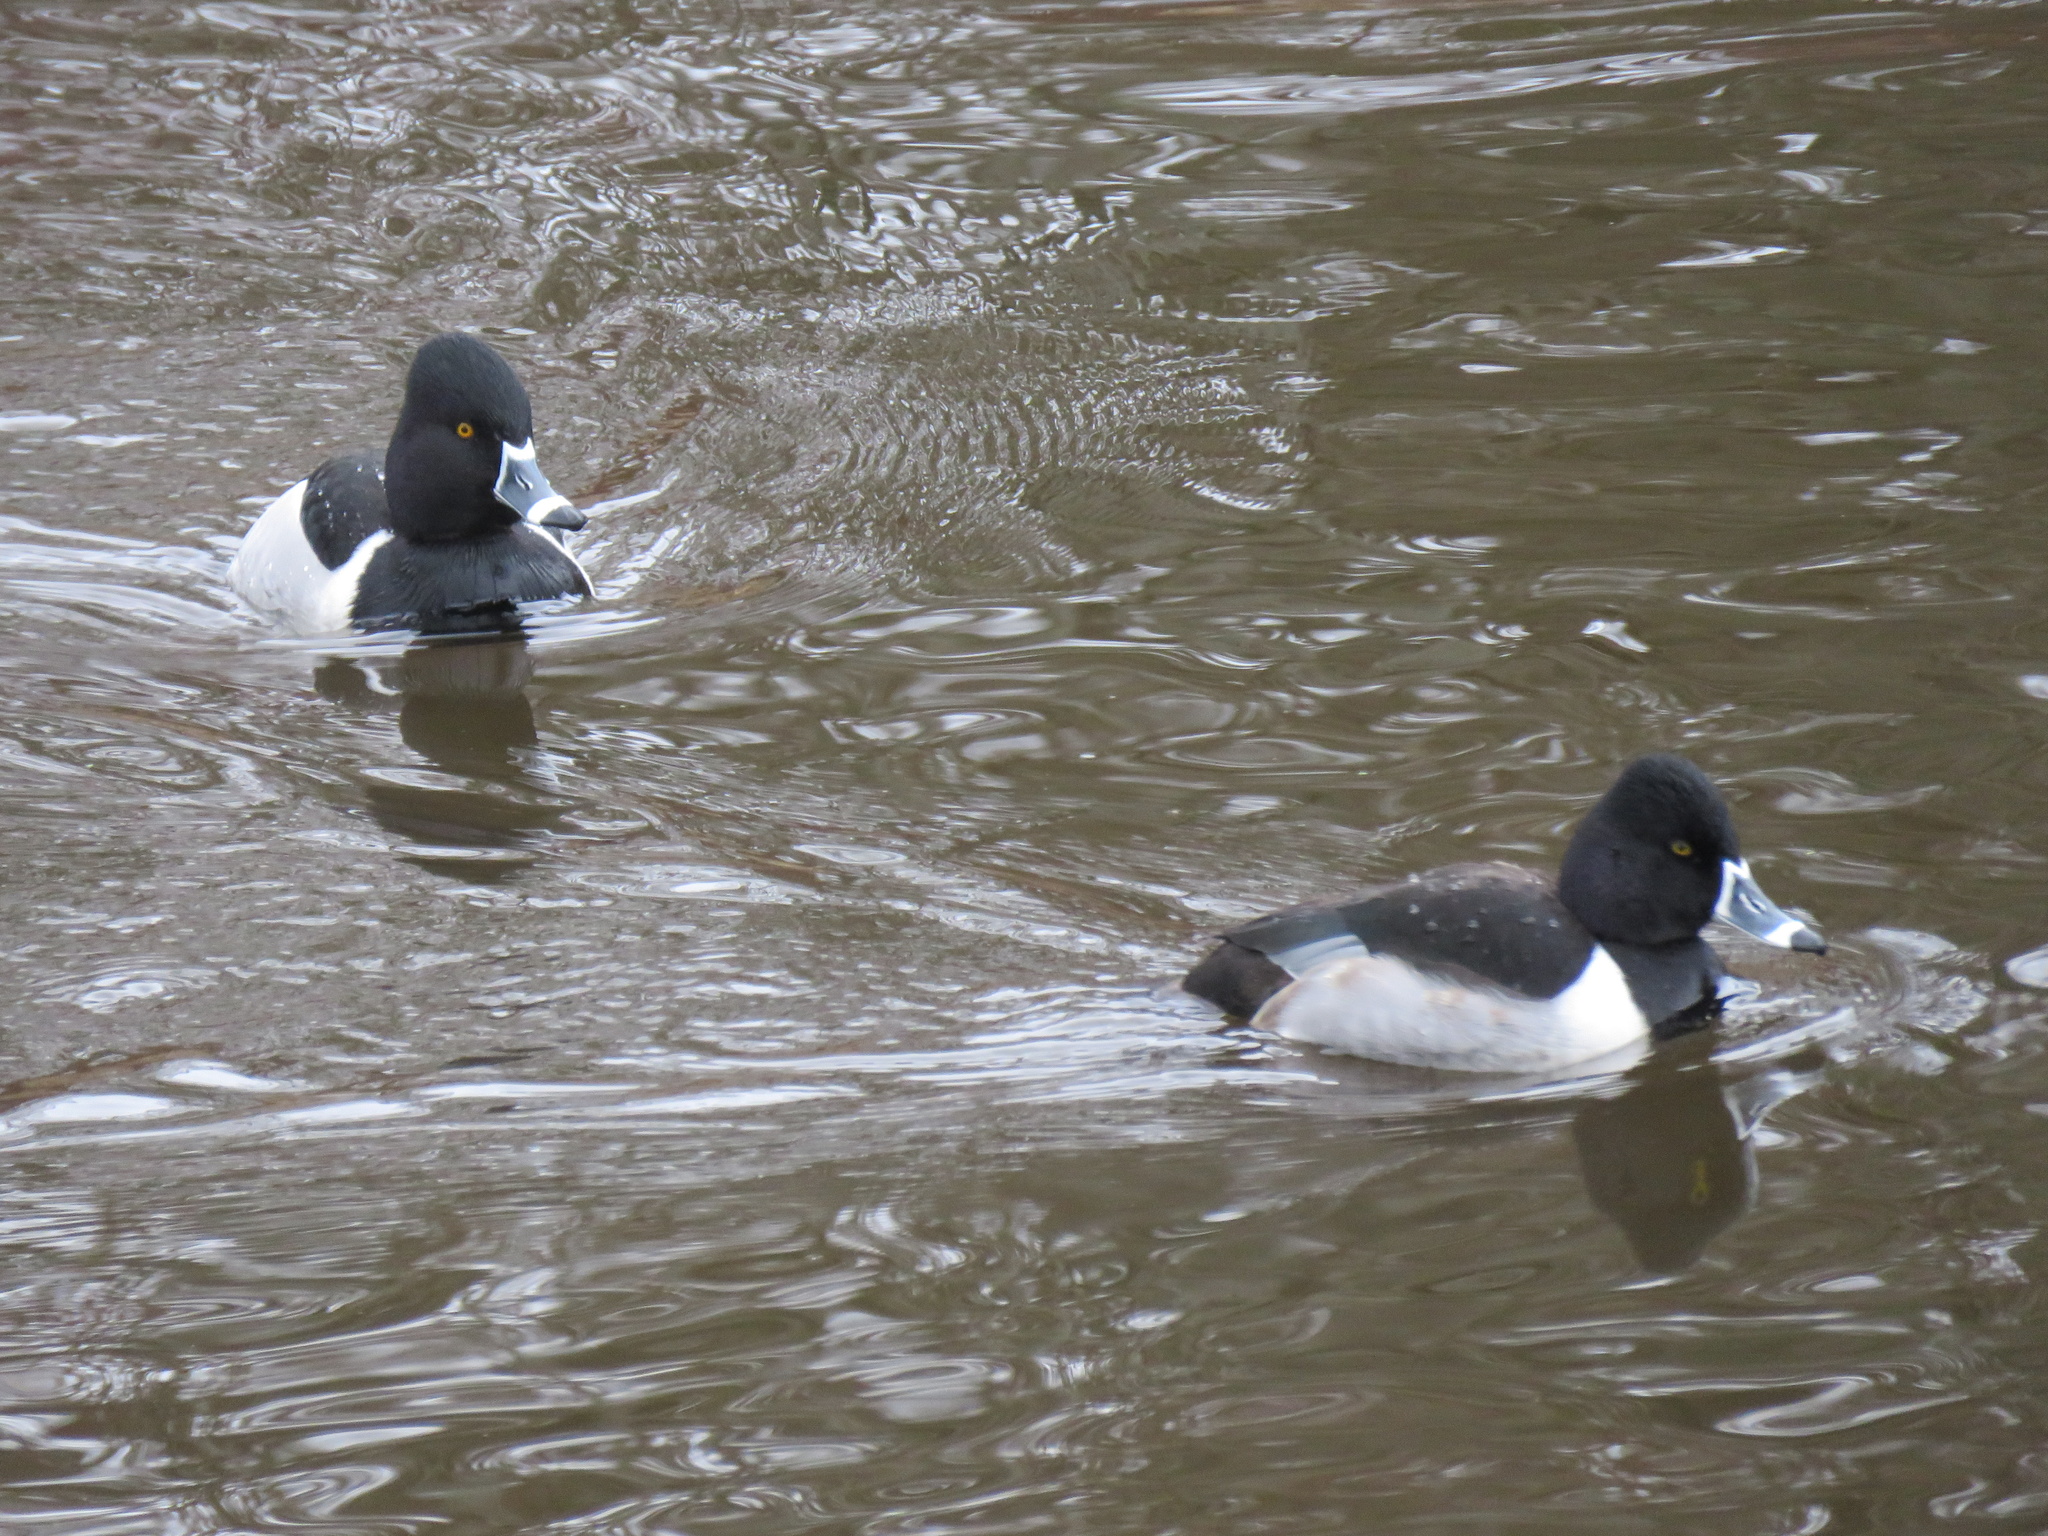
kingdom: Animalia
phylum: Chordata
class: Aves
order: Anseriformes
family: Anatidae
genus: Aythya
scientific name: Aythya collaris
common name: Ring-necked duck
